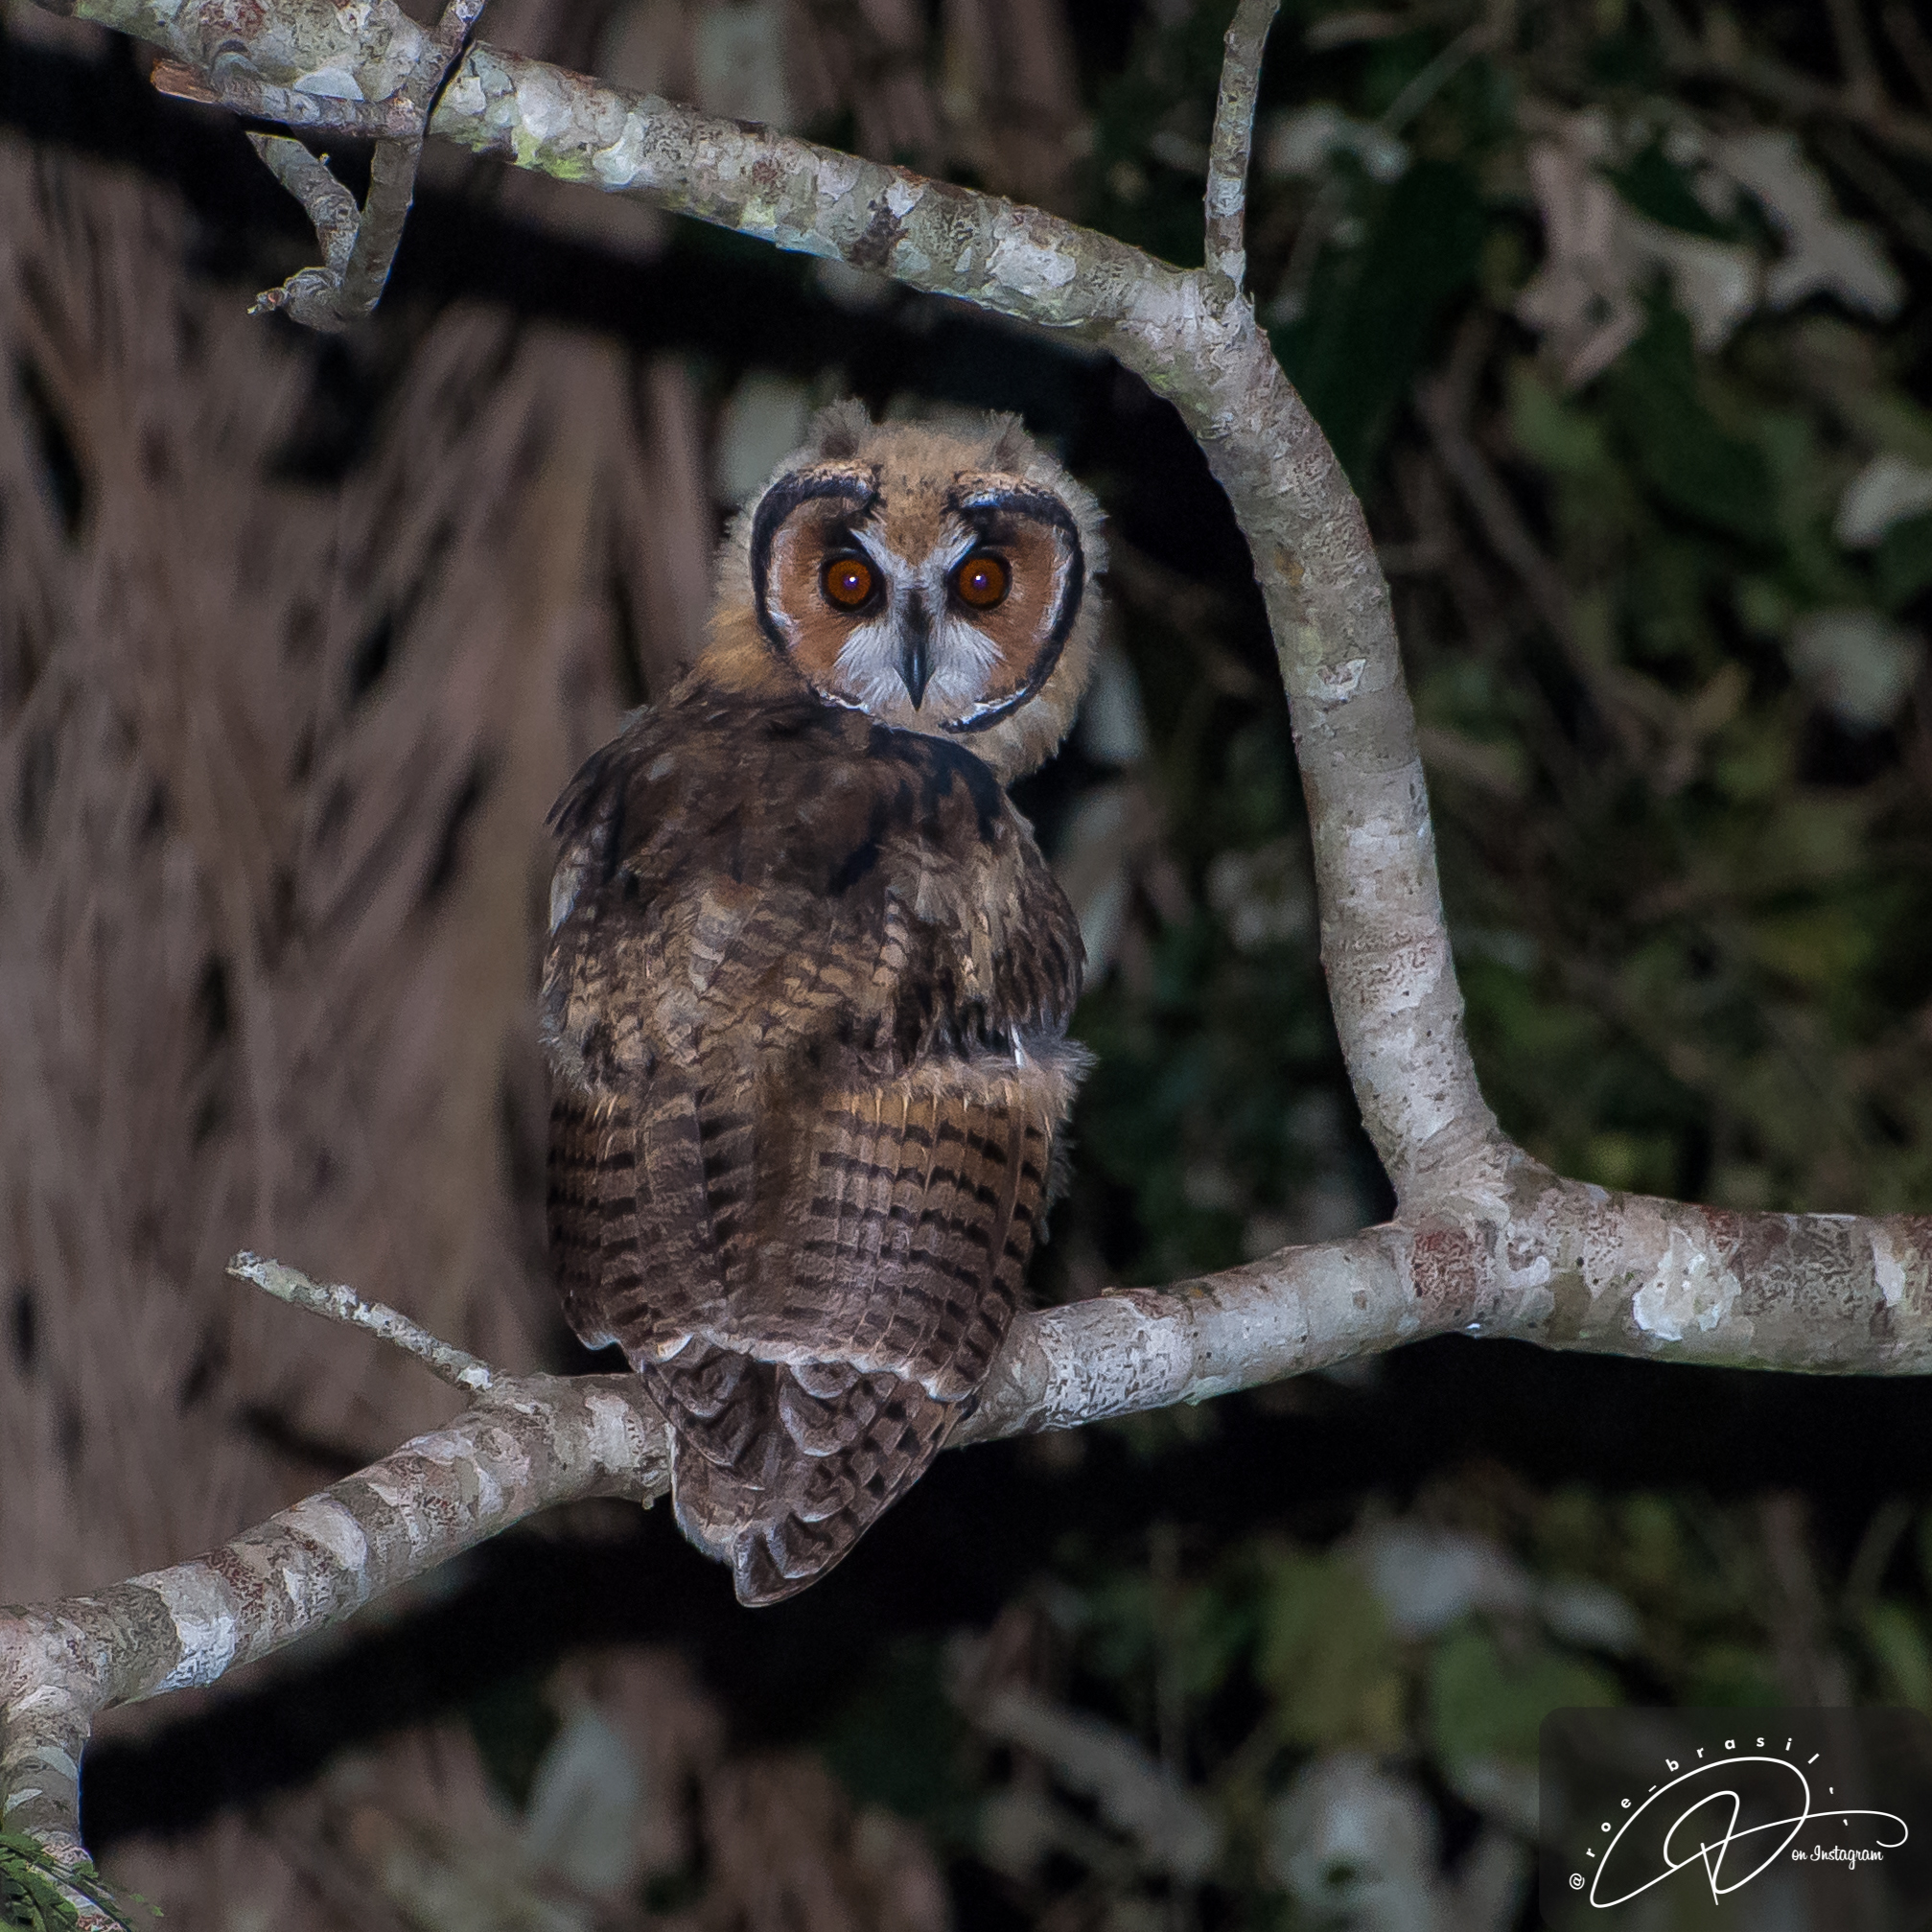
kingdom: Animalia
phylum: Chordata
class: Aves
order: Strigiformes
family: Strigidae
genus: Pseudoscops
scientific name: Pseudoscops clamator
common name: Striped owl
